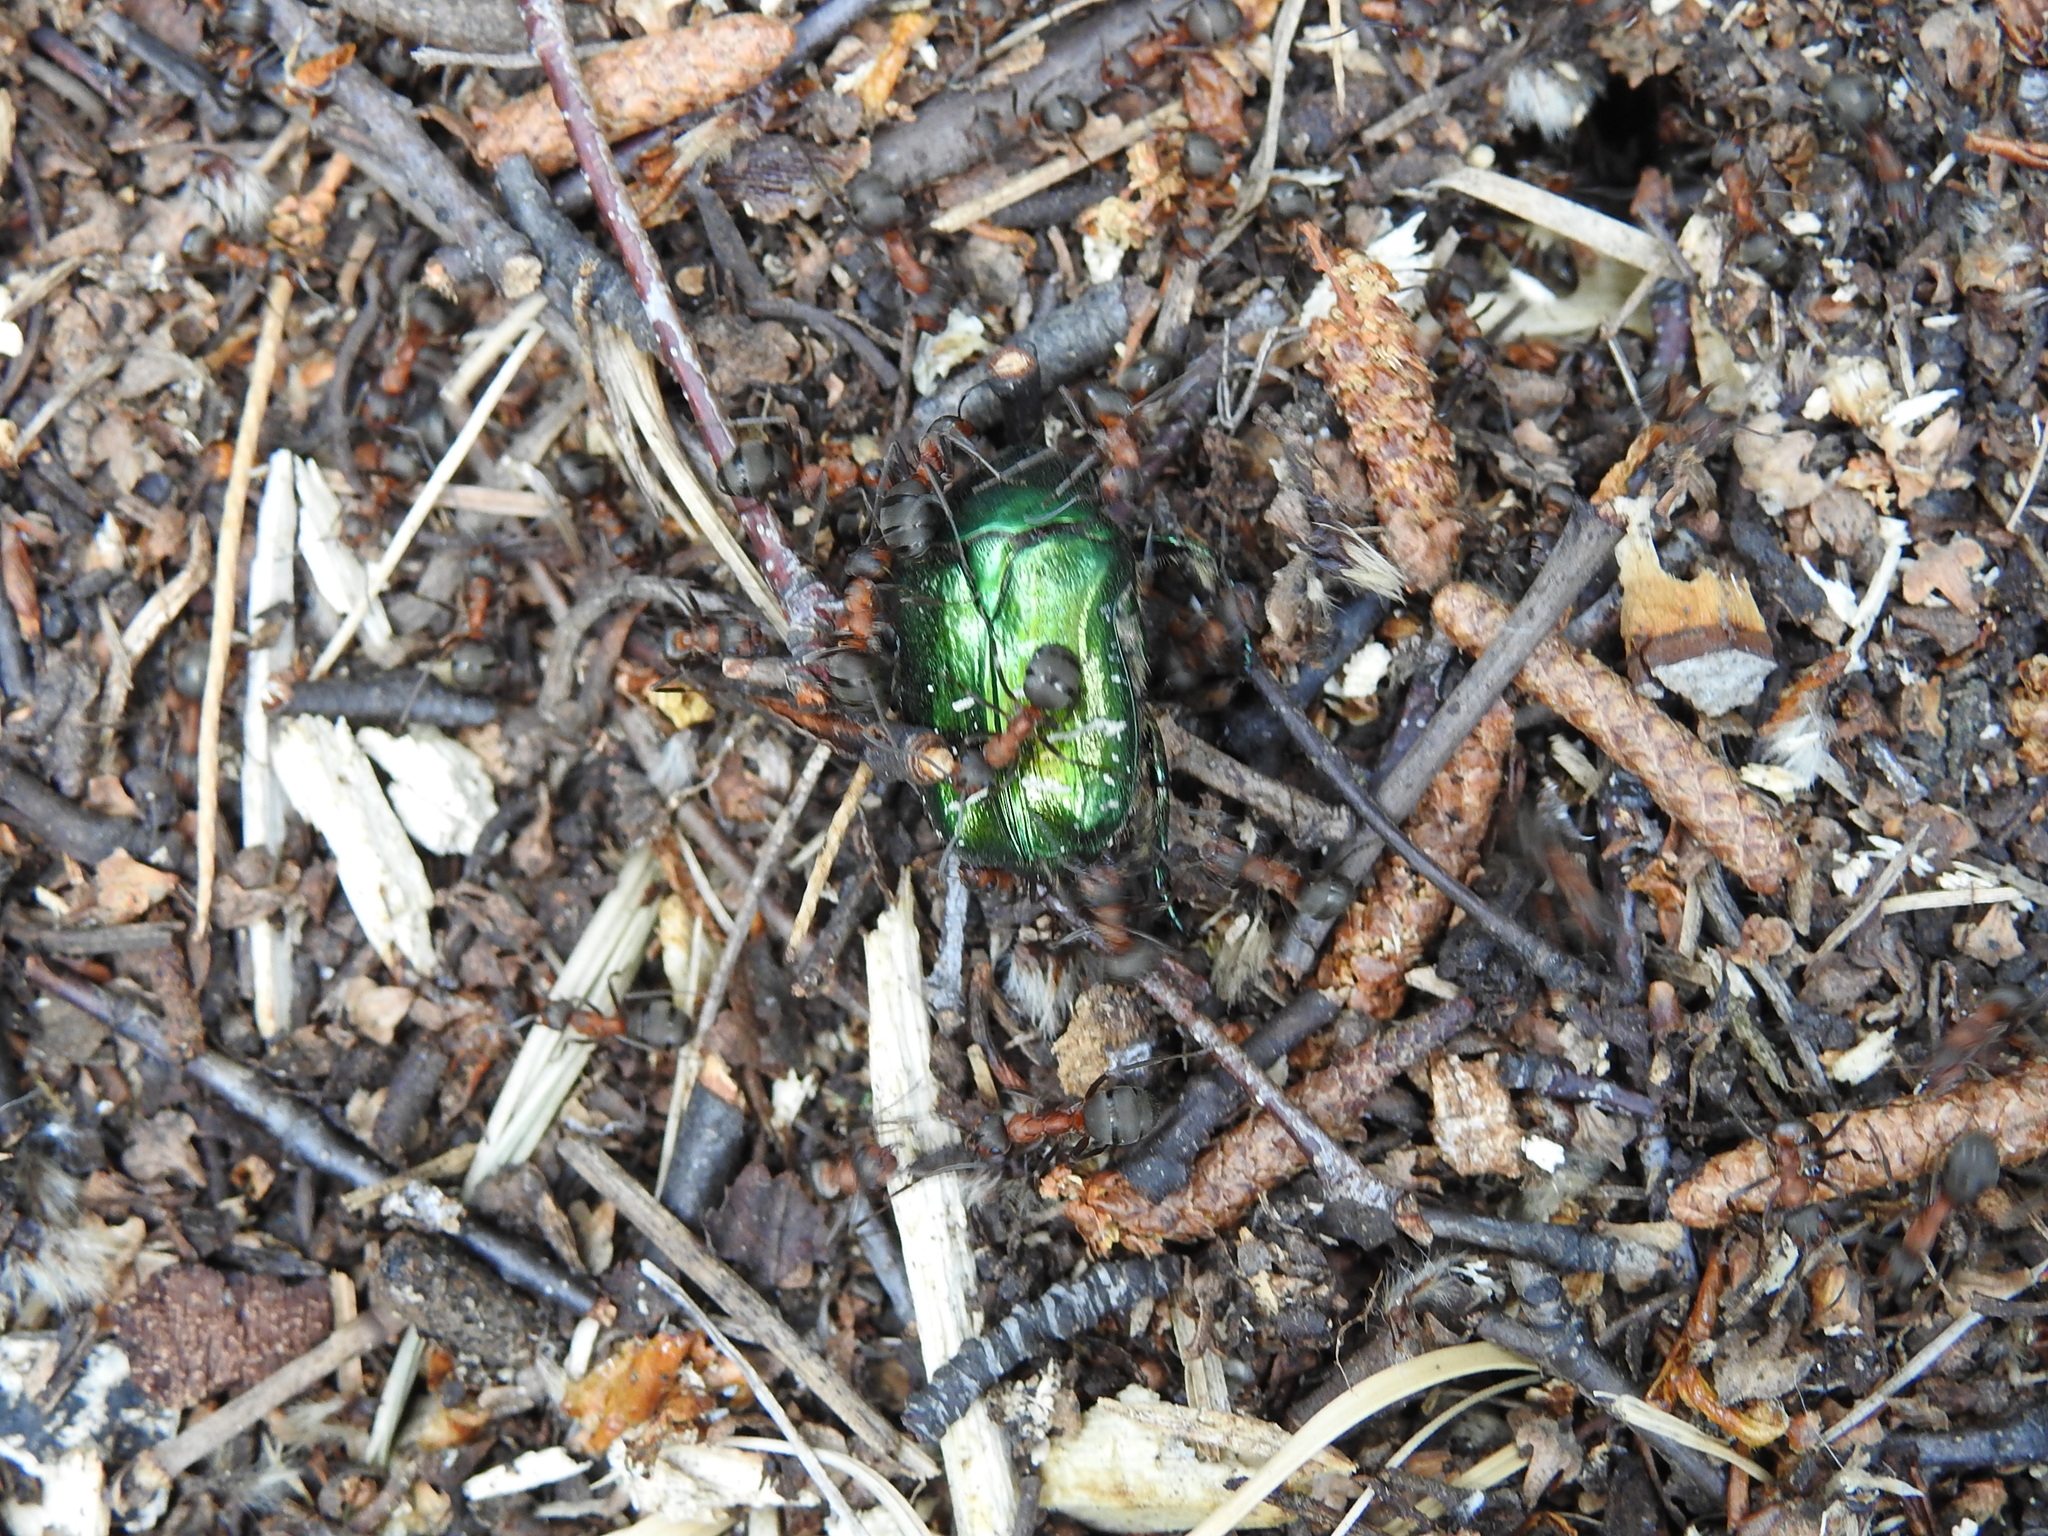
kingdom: Animalia
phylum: Arthropoda
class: Insecta
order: Coleoptera
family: Scarabaeidae
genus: Cetonia
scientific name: Cetonia aurata
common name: Rose chafer
